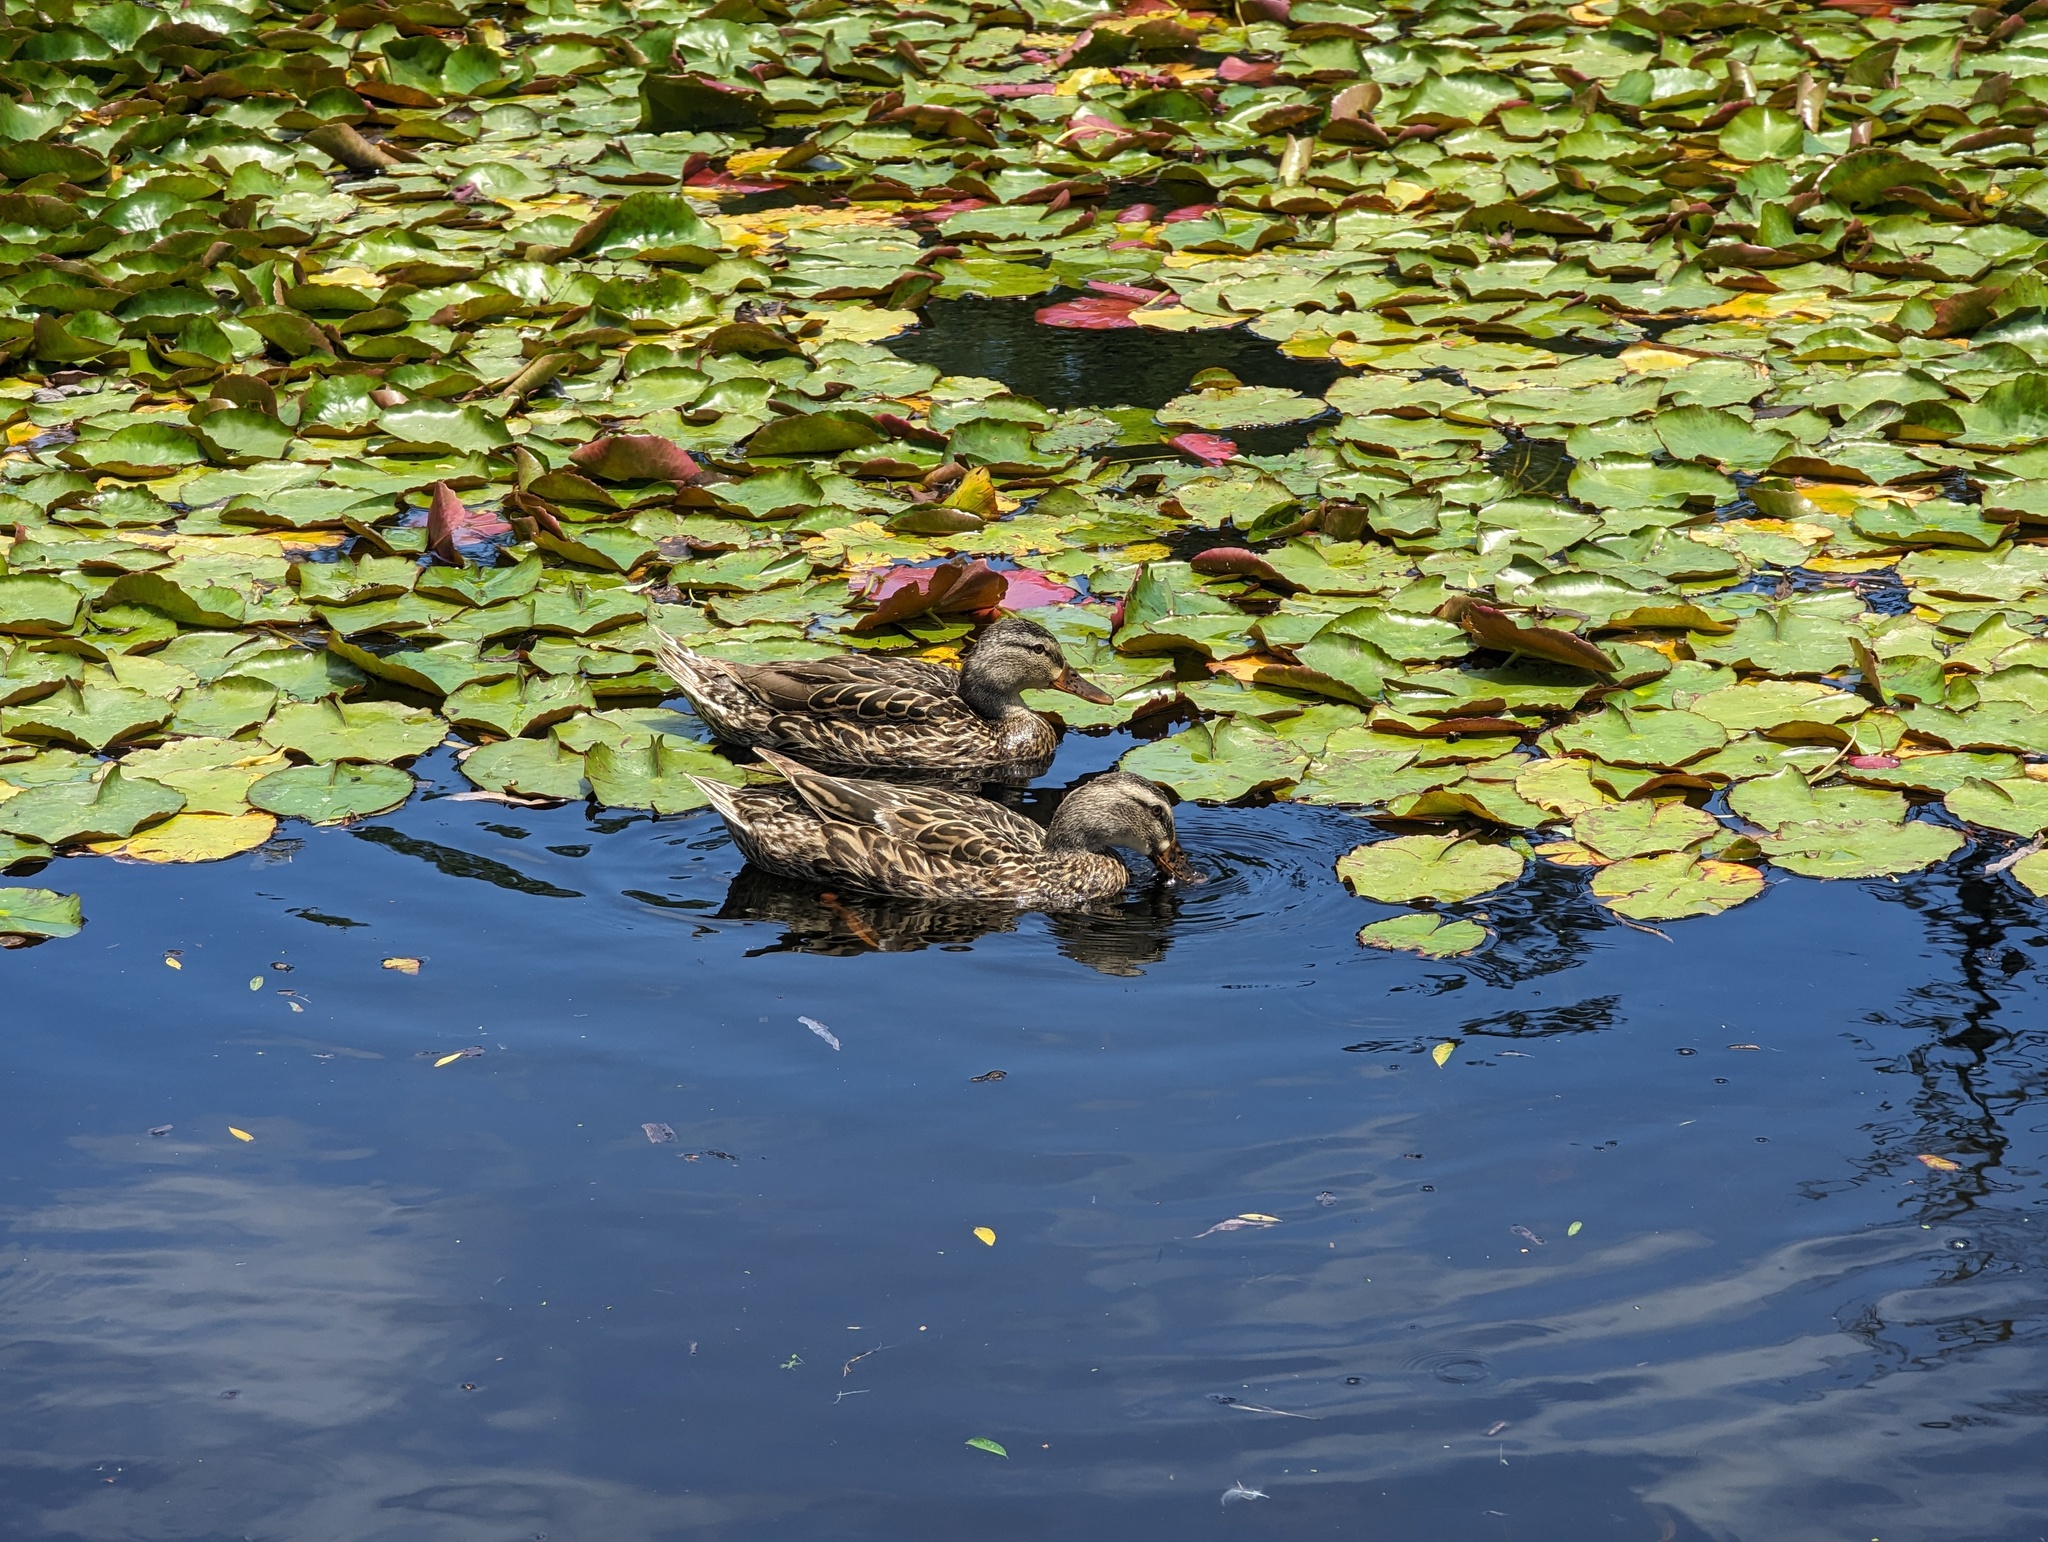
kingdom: Animalia
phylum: Chordata
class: Aves
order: Anseriformes
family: Anatidae
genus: Anas
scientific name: Anas platyrhynchos
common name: Mallard
